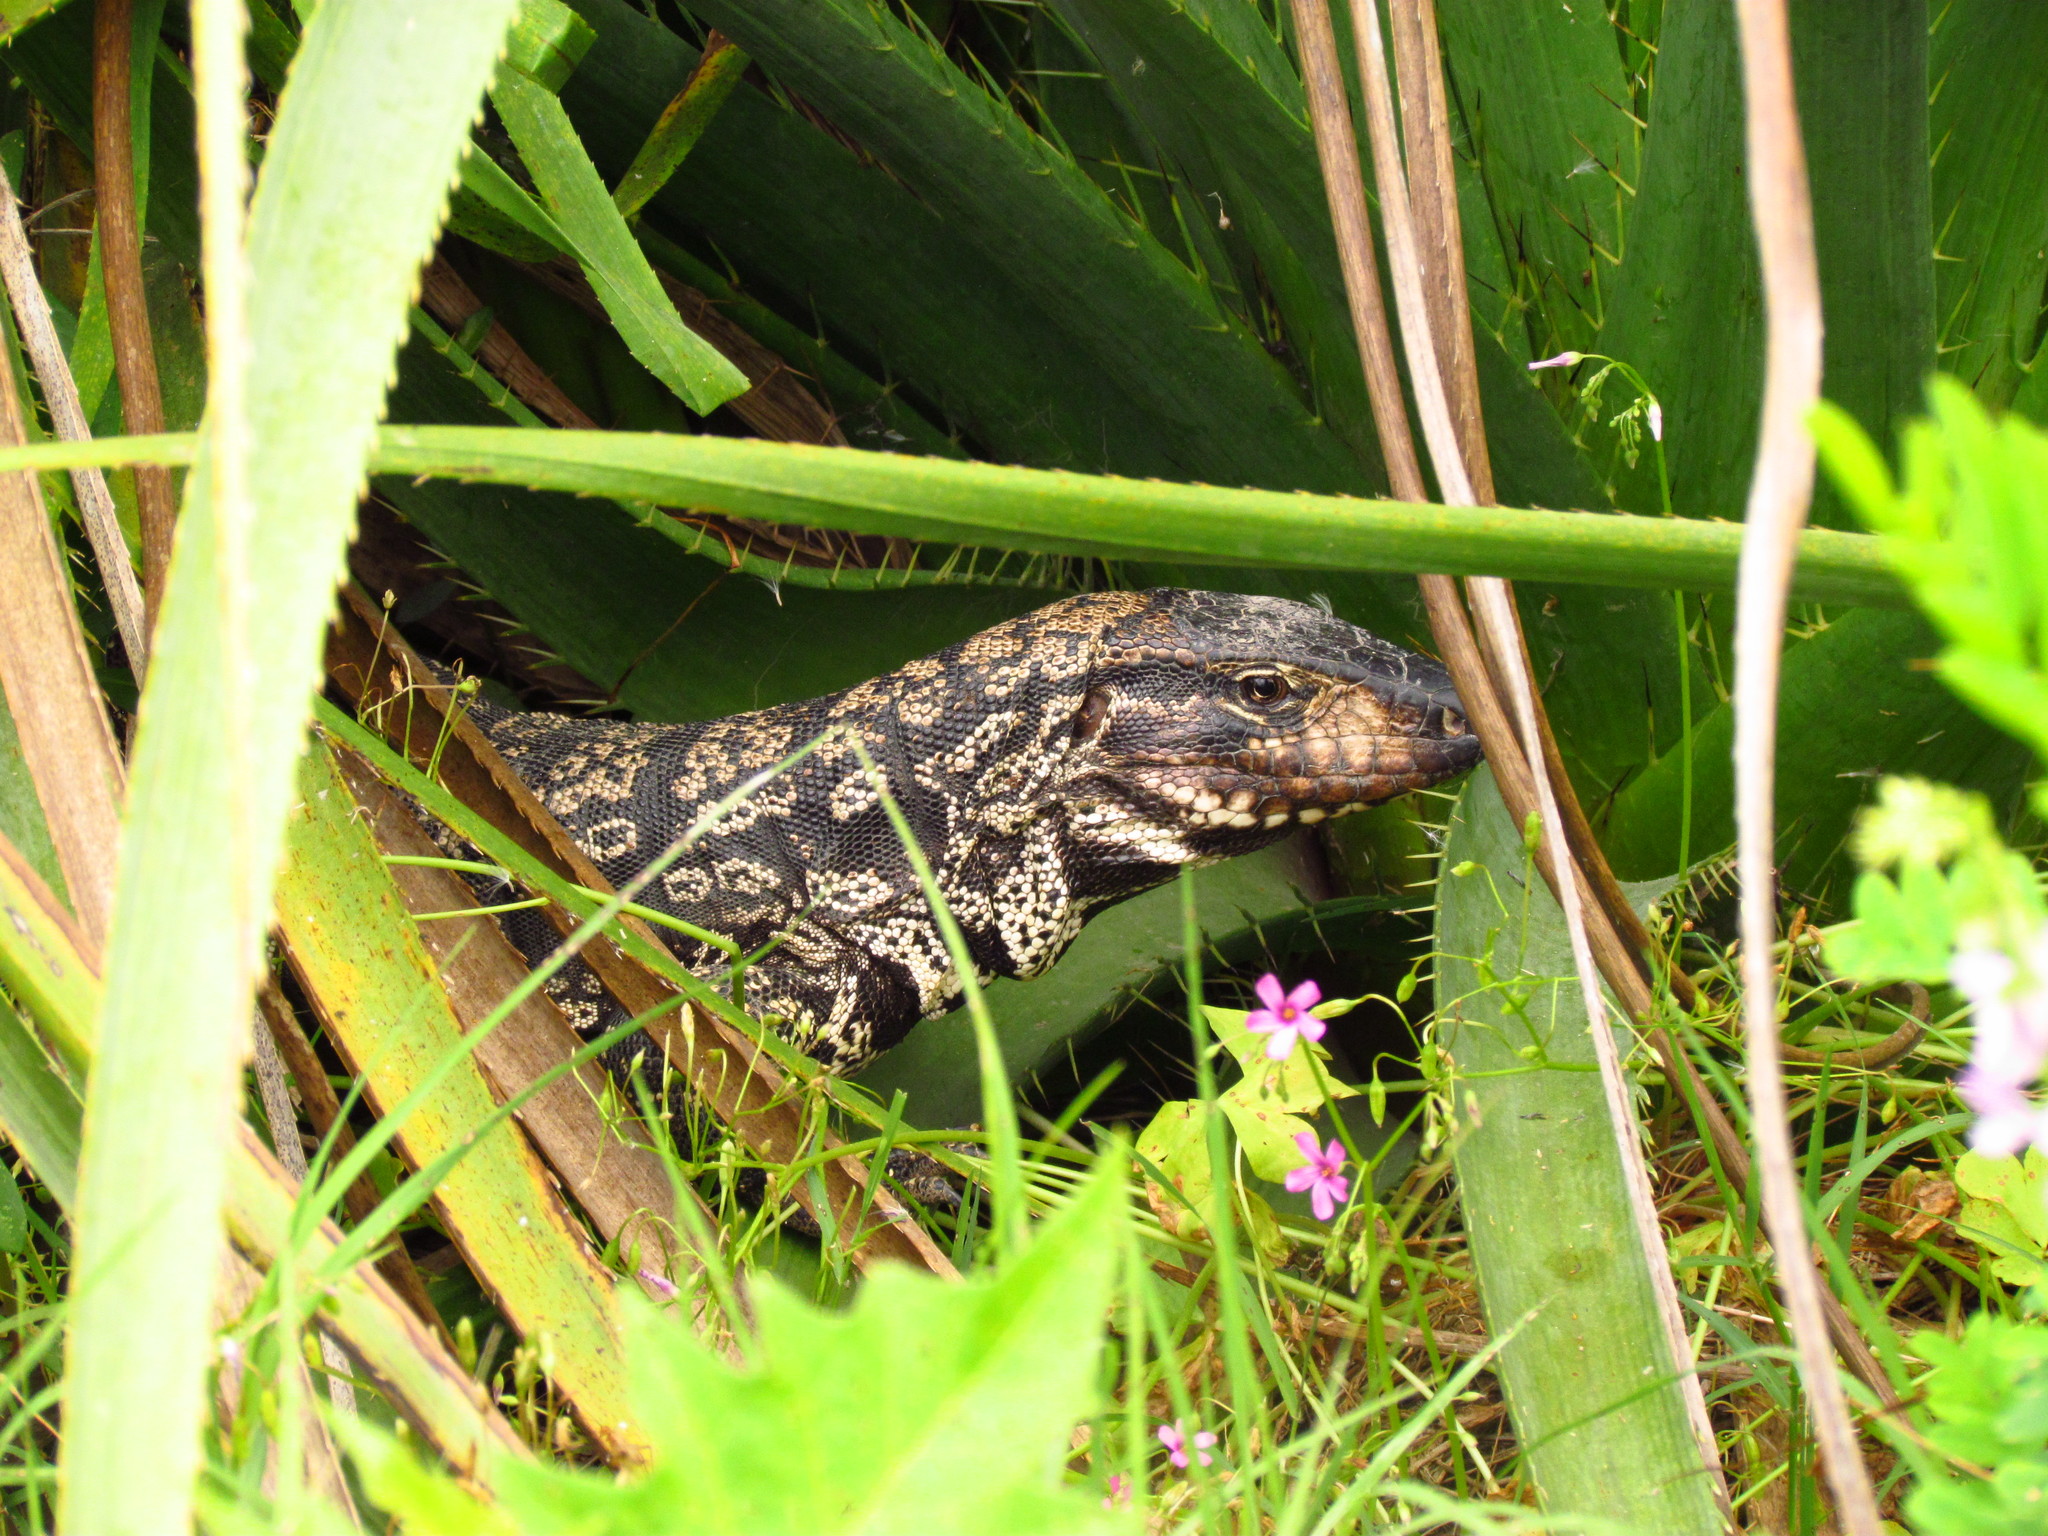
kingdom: Animalia
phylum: Chordata
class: Squamata
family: Teiidae
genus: Salvator
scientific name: Salvator merianae
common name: Argentine black and white tegu
